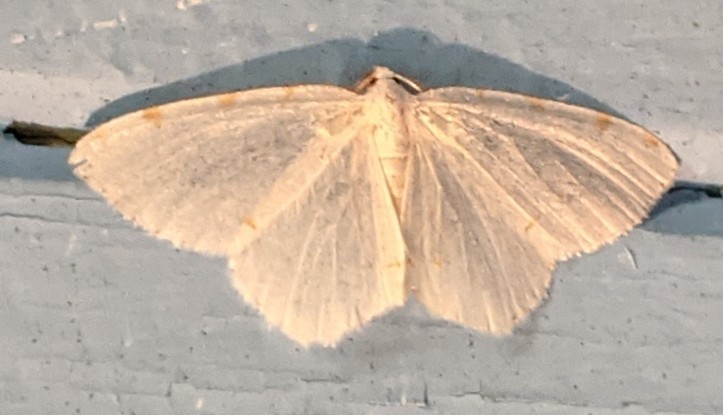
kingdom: Animalia
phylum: Arthropoda
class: Insecta
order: Lepidoptera
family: Geometridae
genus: Macaria
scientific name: Macaria pustularia
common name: Lesser maple spanworm moth
